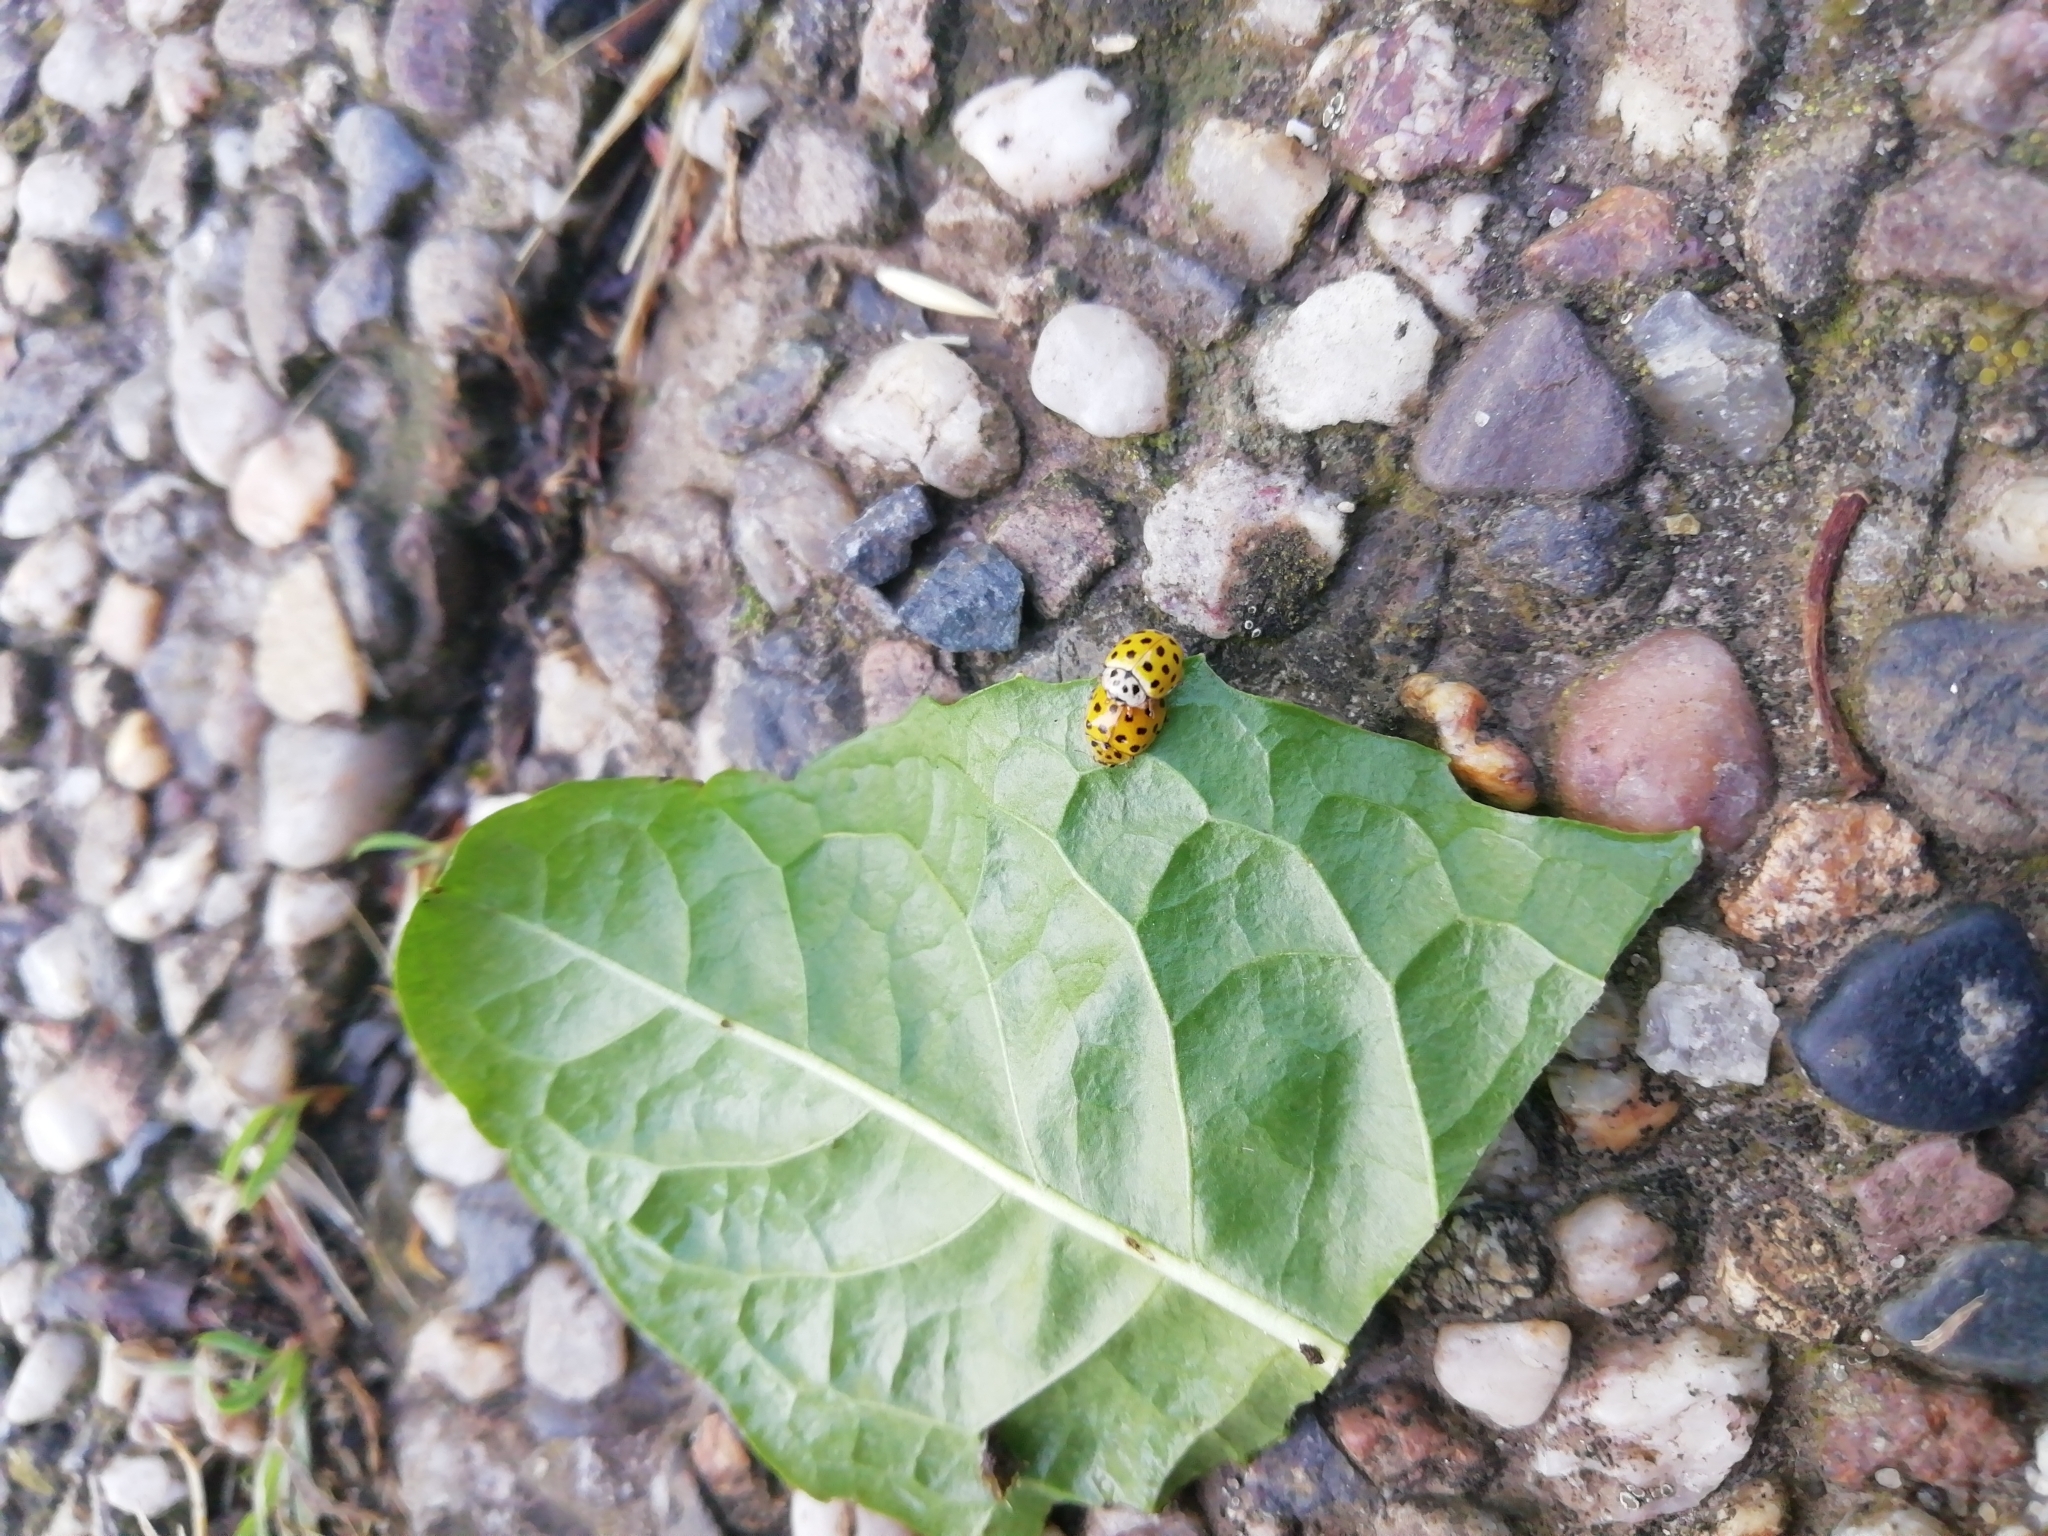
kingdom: Animalia
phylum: Arthropoda
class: Insecta
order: Coleoptera
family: Coccinellidae
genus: Psyllobora
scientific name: Psyllobora vigintiduopunctata
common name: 22-spot ladybird
